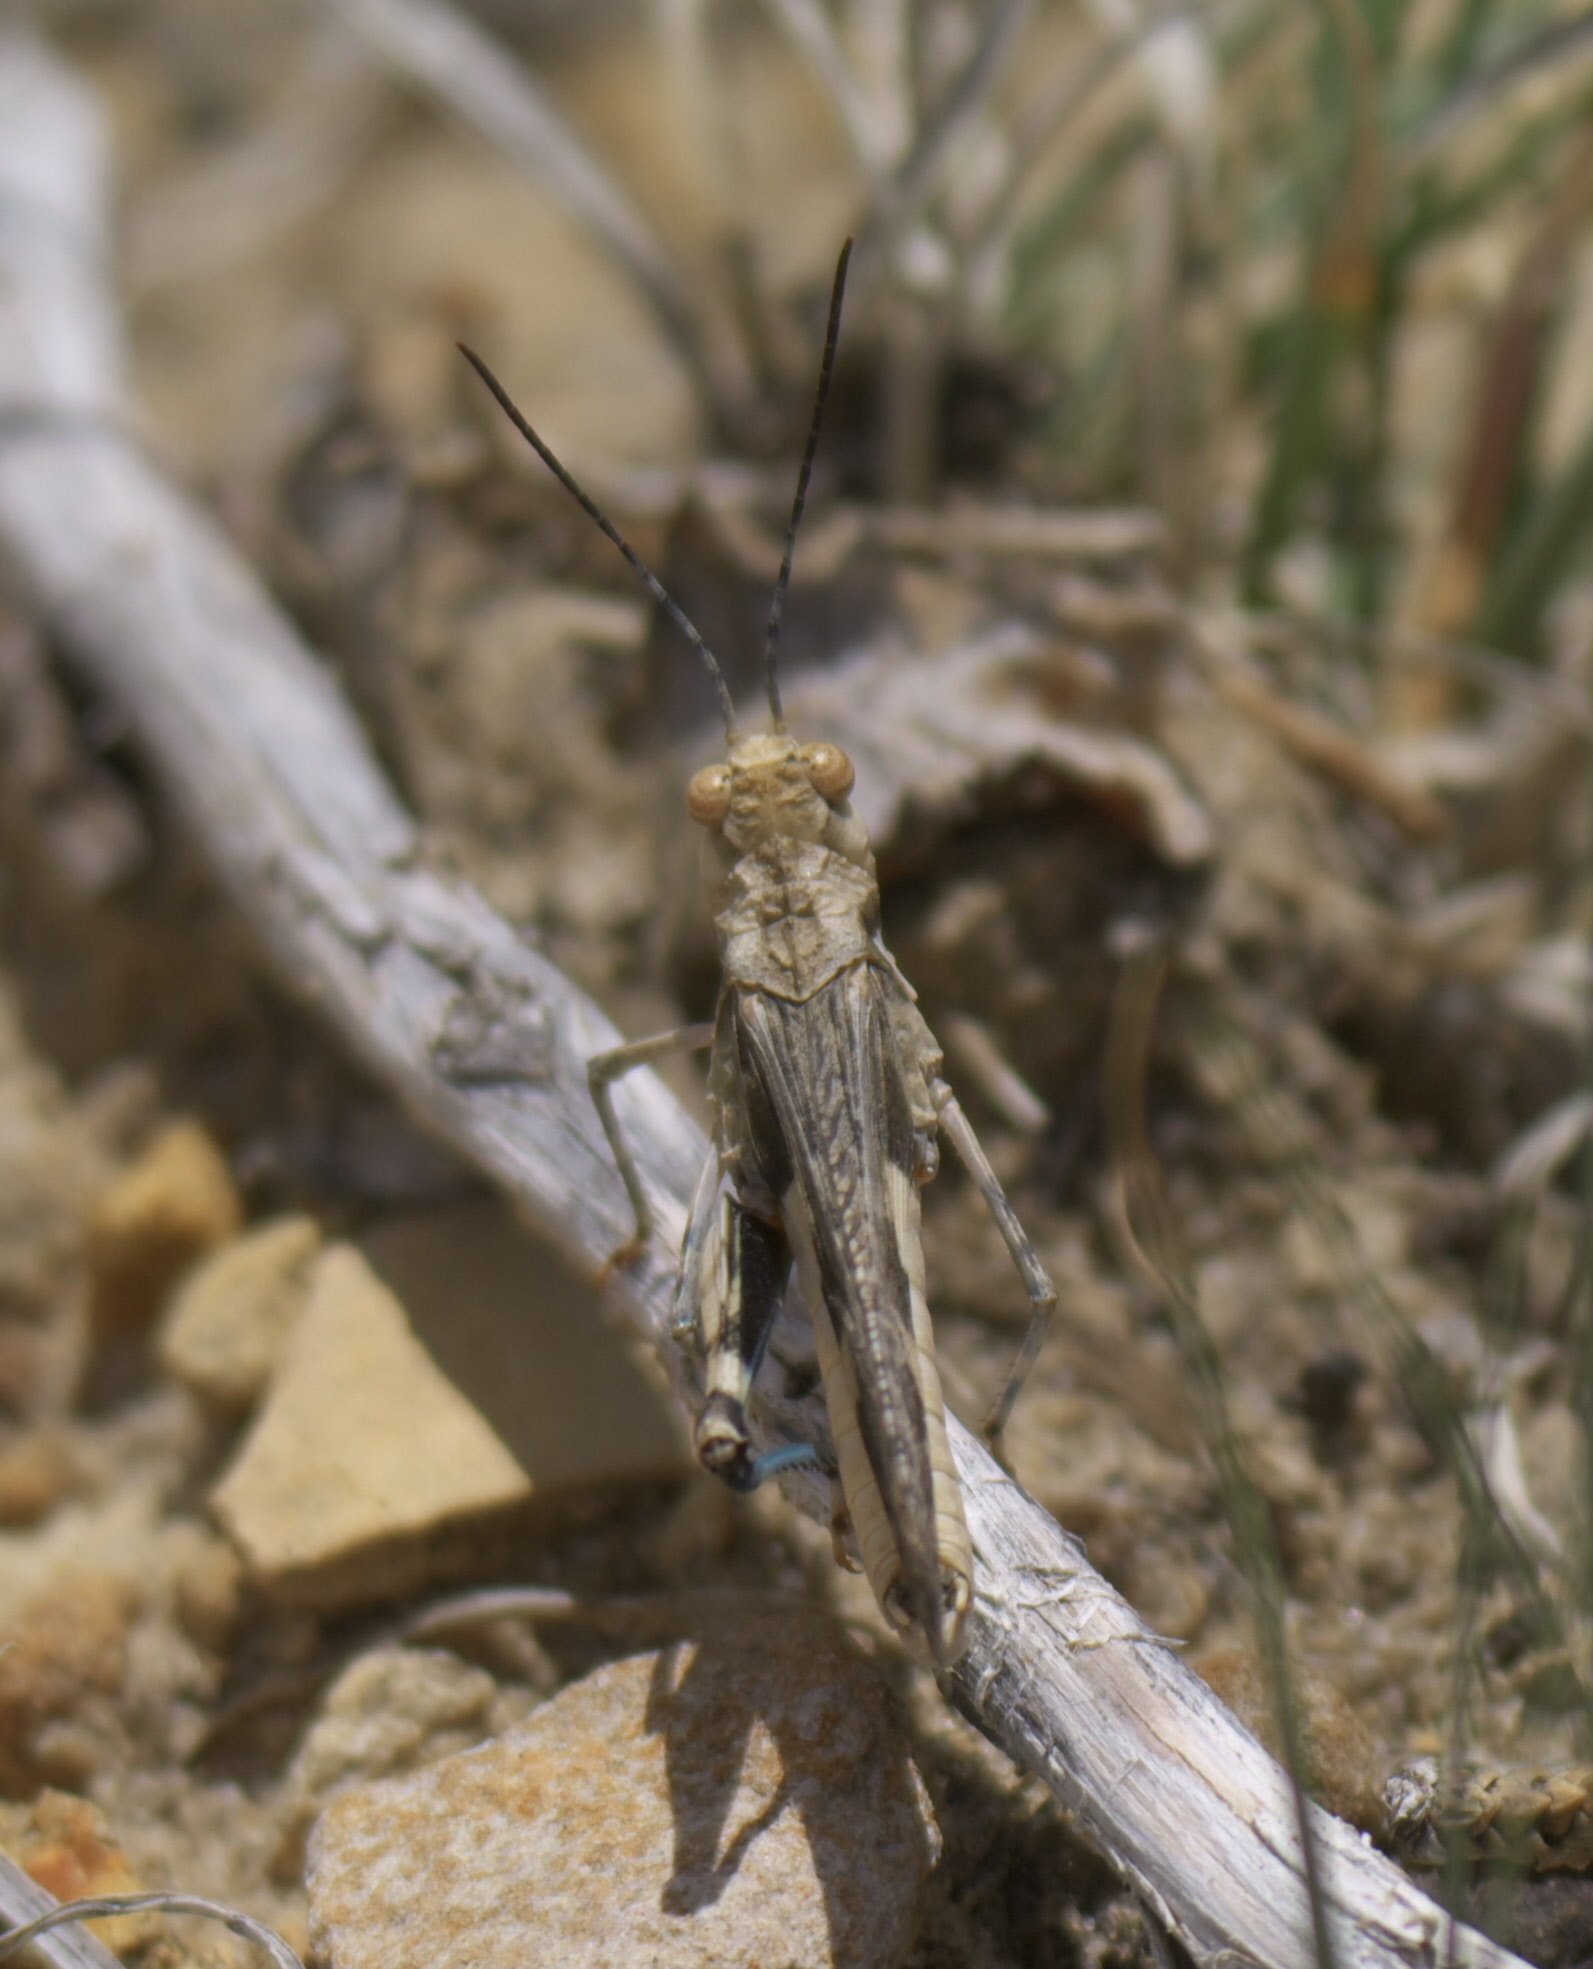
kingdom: Animalia
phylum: Arthropoda
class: Insecta
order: Orthoptera
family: Acrididae
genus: Derotmema
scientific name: Derotmema haydenii
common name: Hayden's grasshopper
